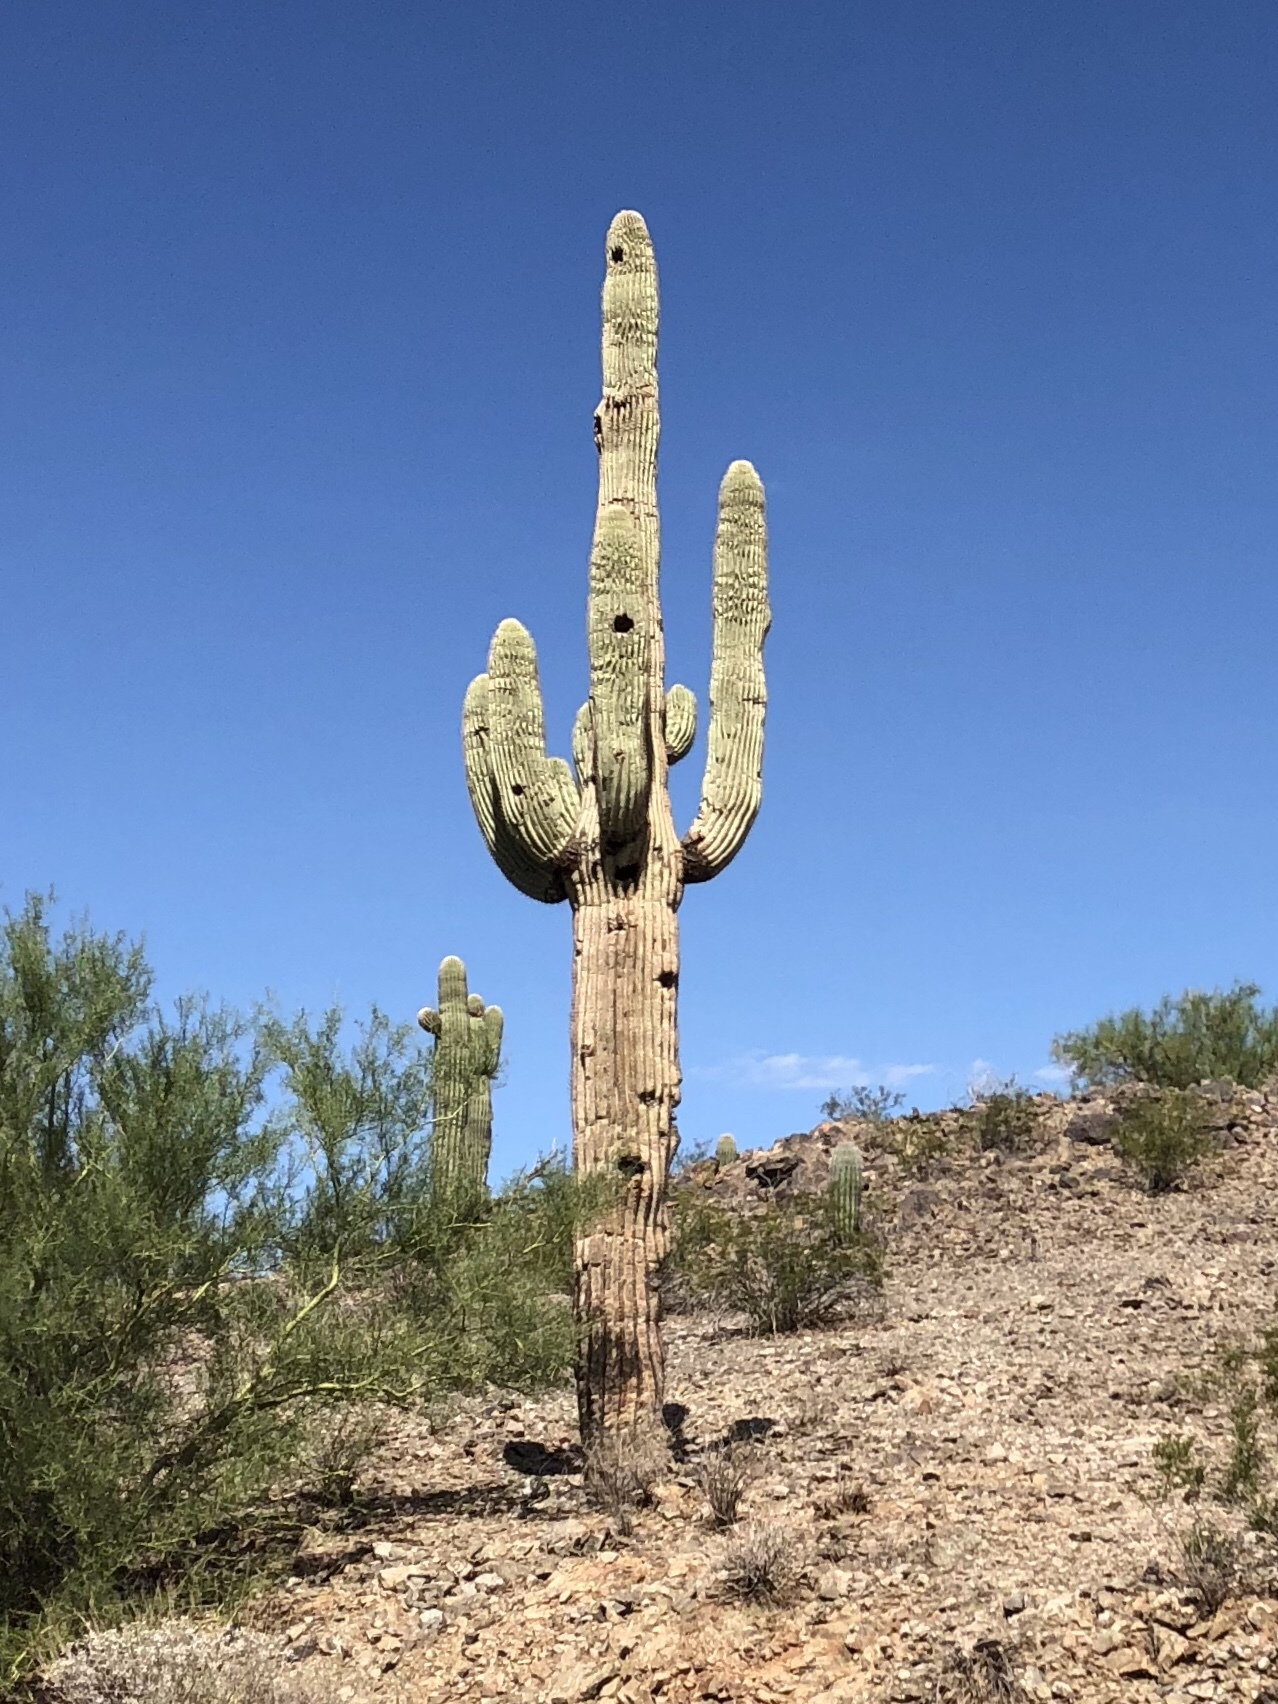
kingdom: Plantae
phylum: Tracheophyta
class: Magnoliopsida
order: Caryophyllales
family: Cactaceae
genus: Carnegiea
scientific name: Carnegiea gigantea
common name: Saguaro
